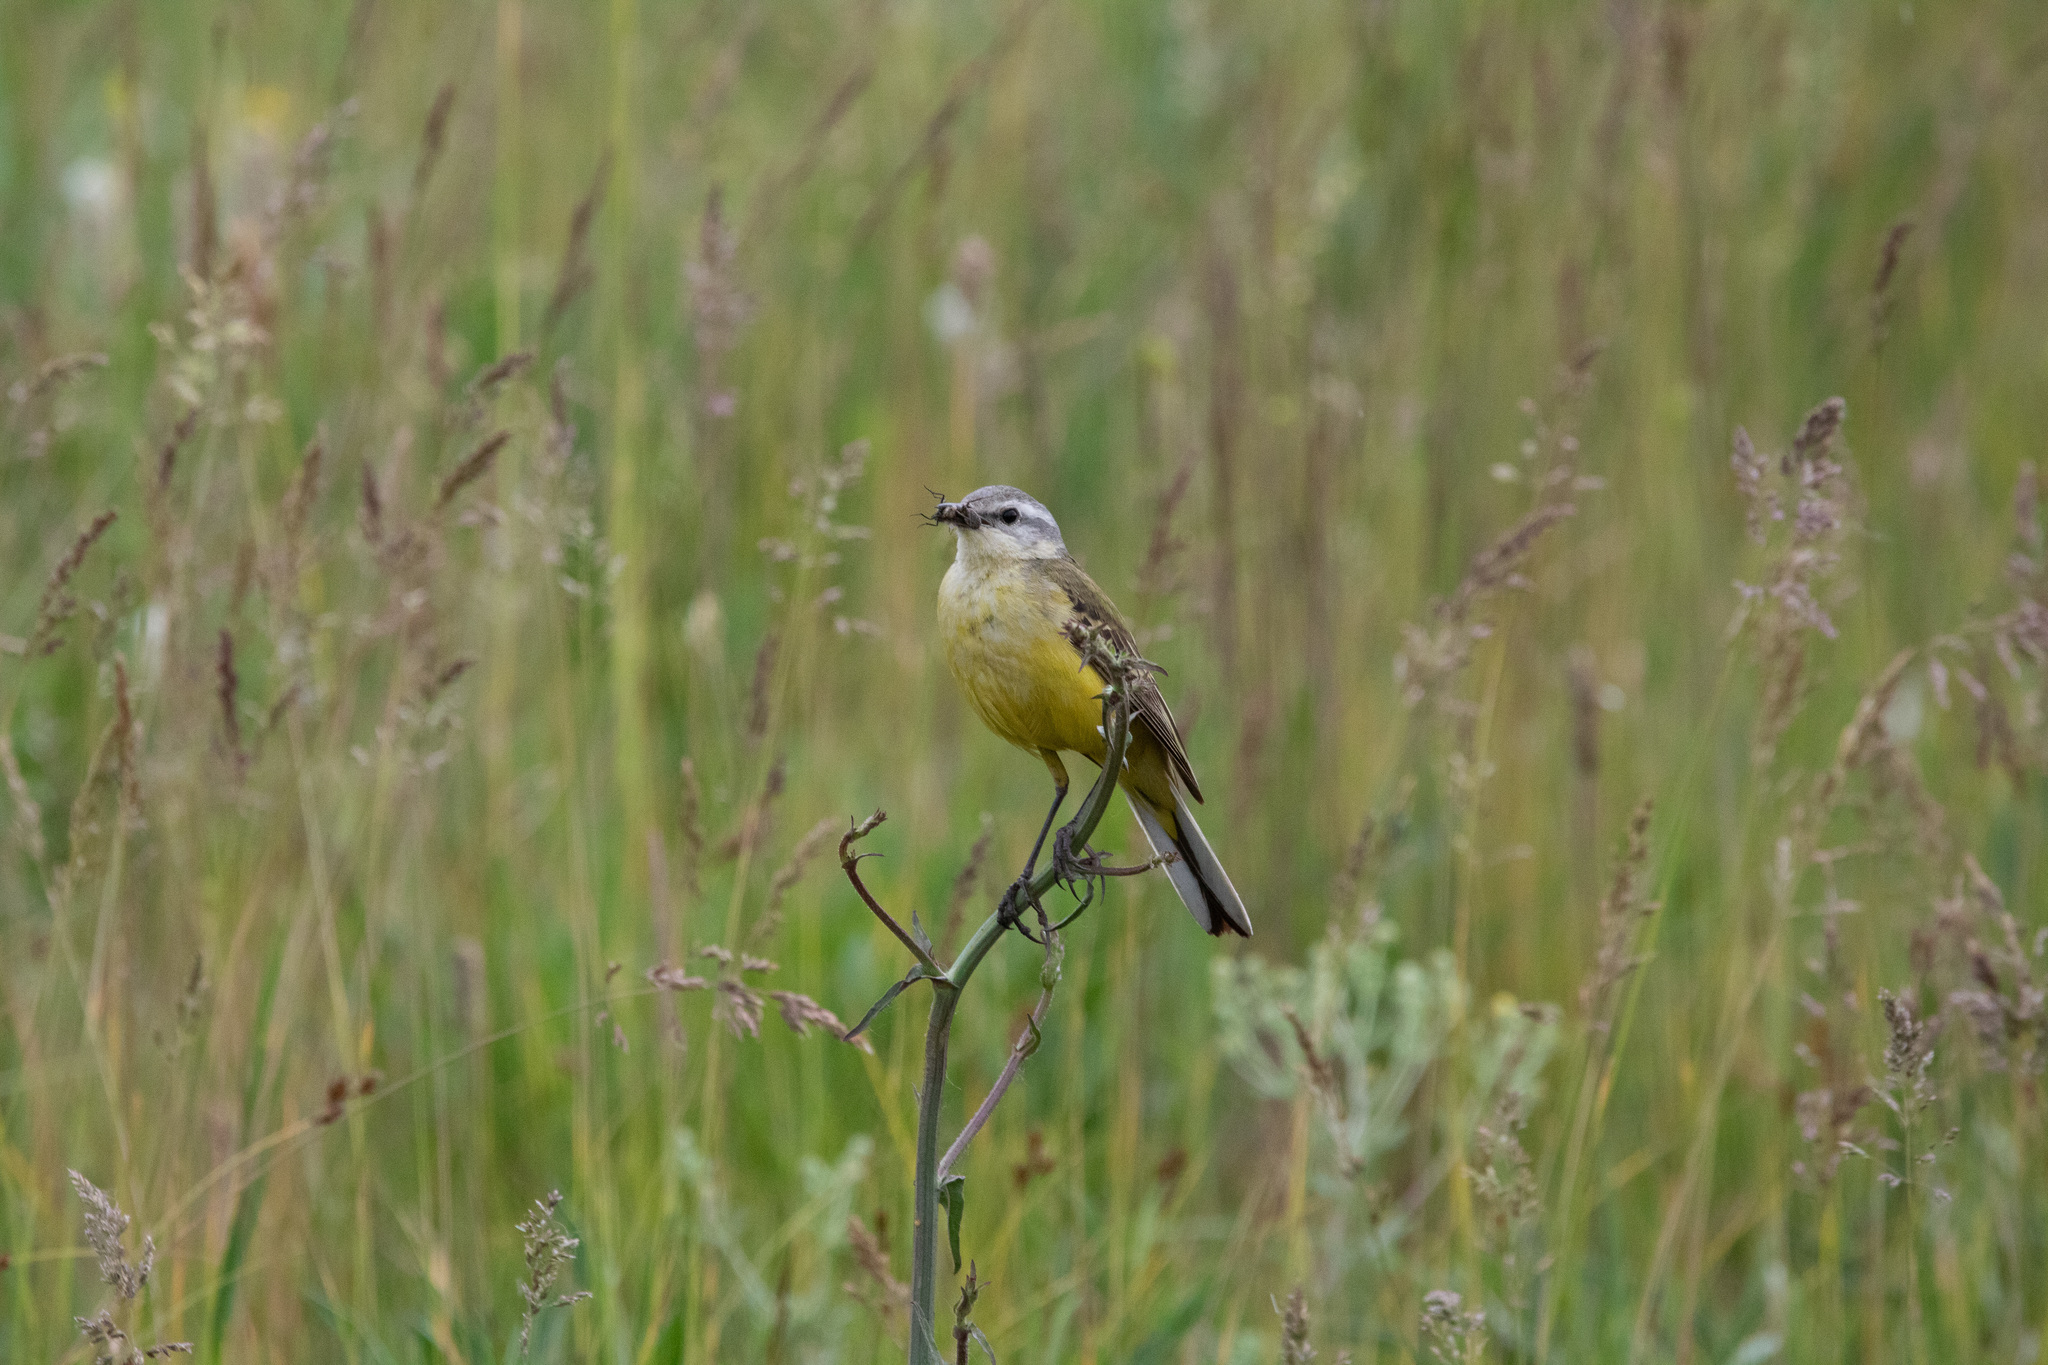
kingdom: Animalia
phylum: Chordata
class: Aves
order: Passeriformes
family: Motacillidae
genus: Motacilla
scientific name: Motacilla flava
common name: Western yellow wagtail
